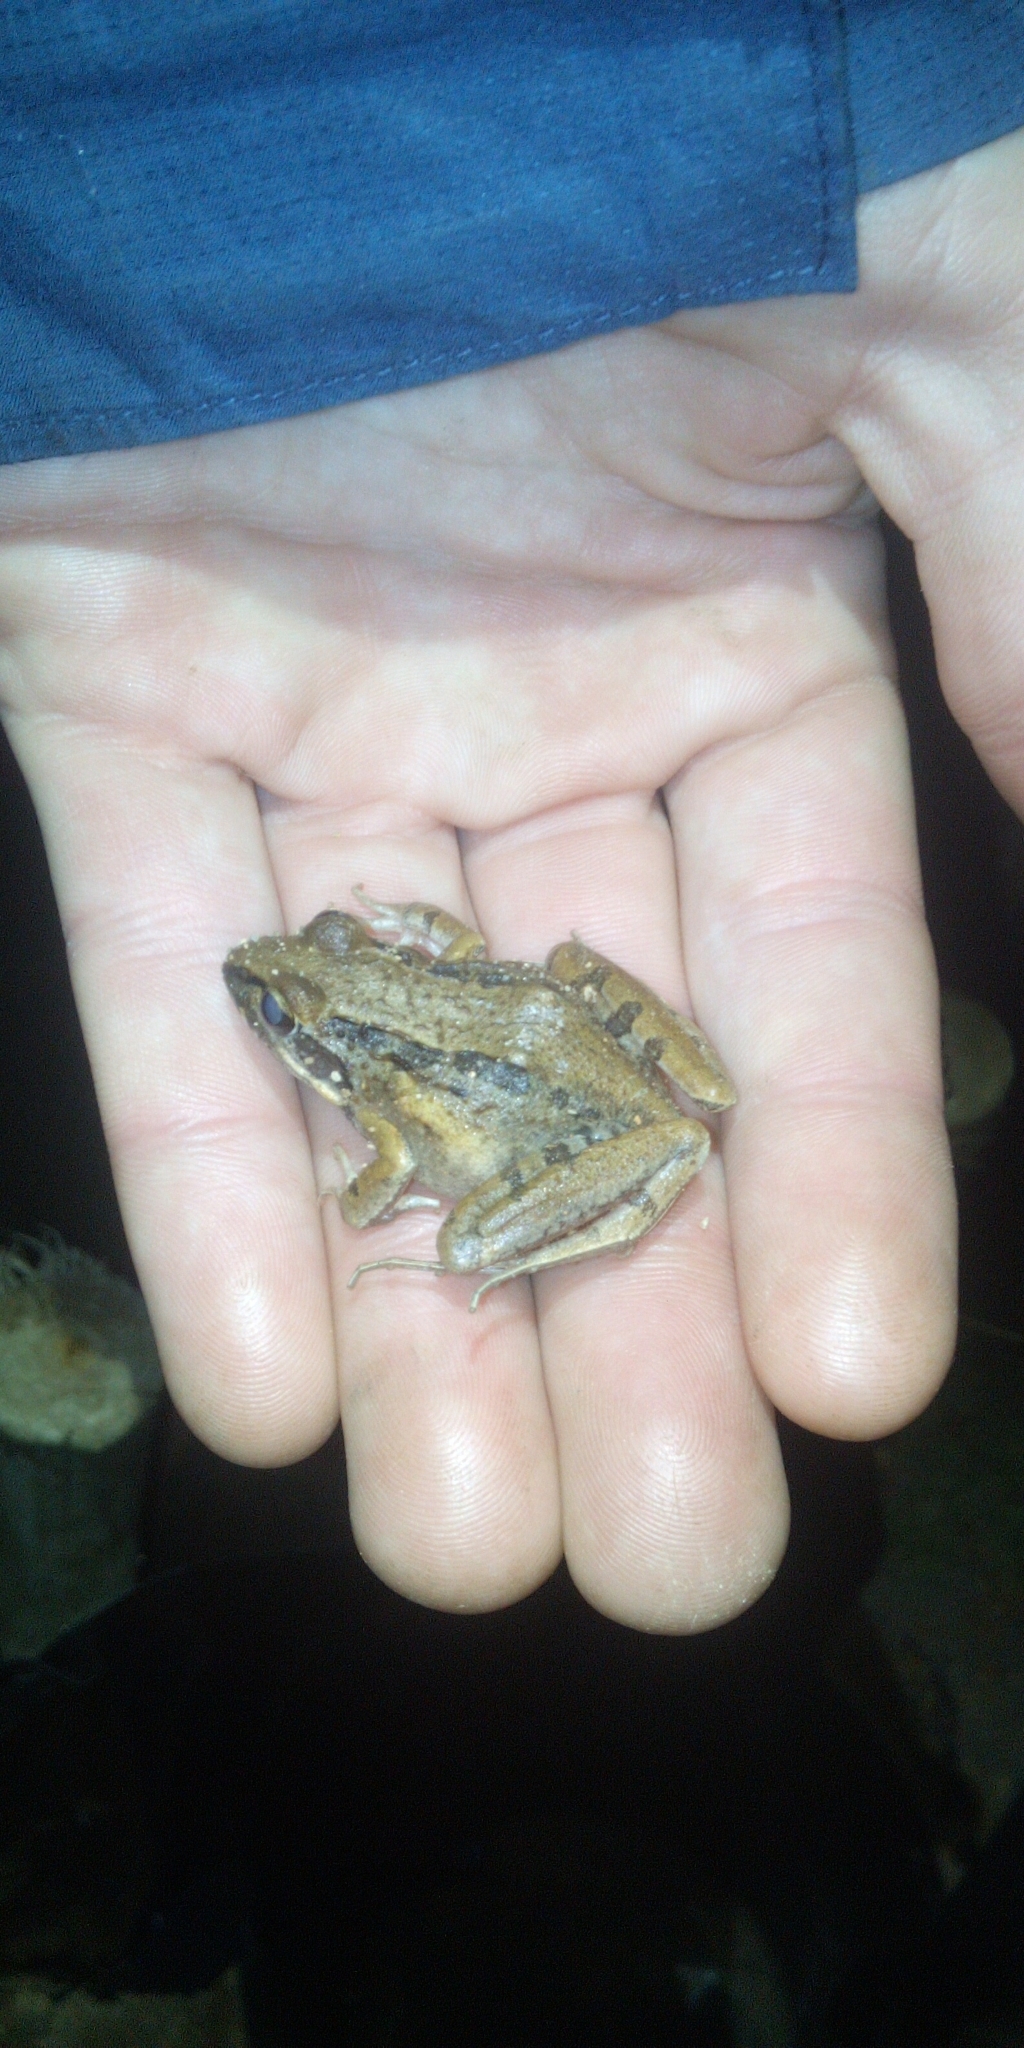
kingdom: Animalia
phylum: Chordata
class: Amphibia
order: Anura
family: Pyxicephalidae
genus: Strongylopus
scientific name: Strongylopus grayii
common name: Gray's stream frog
